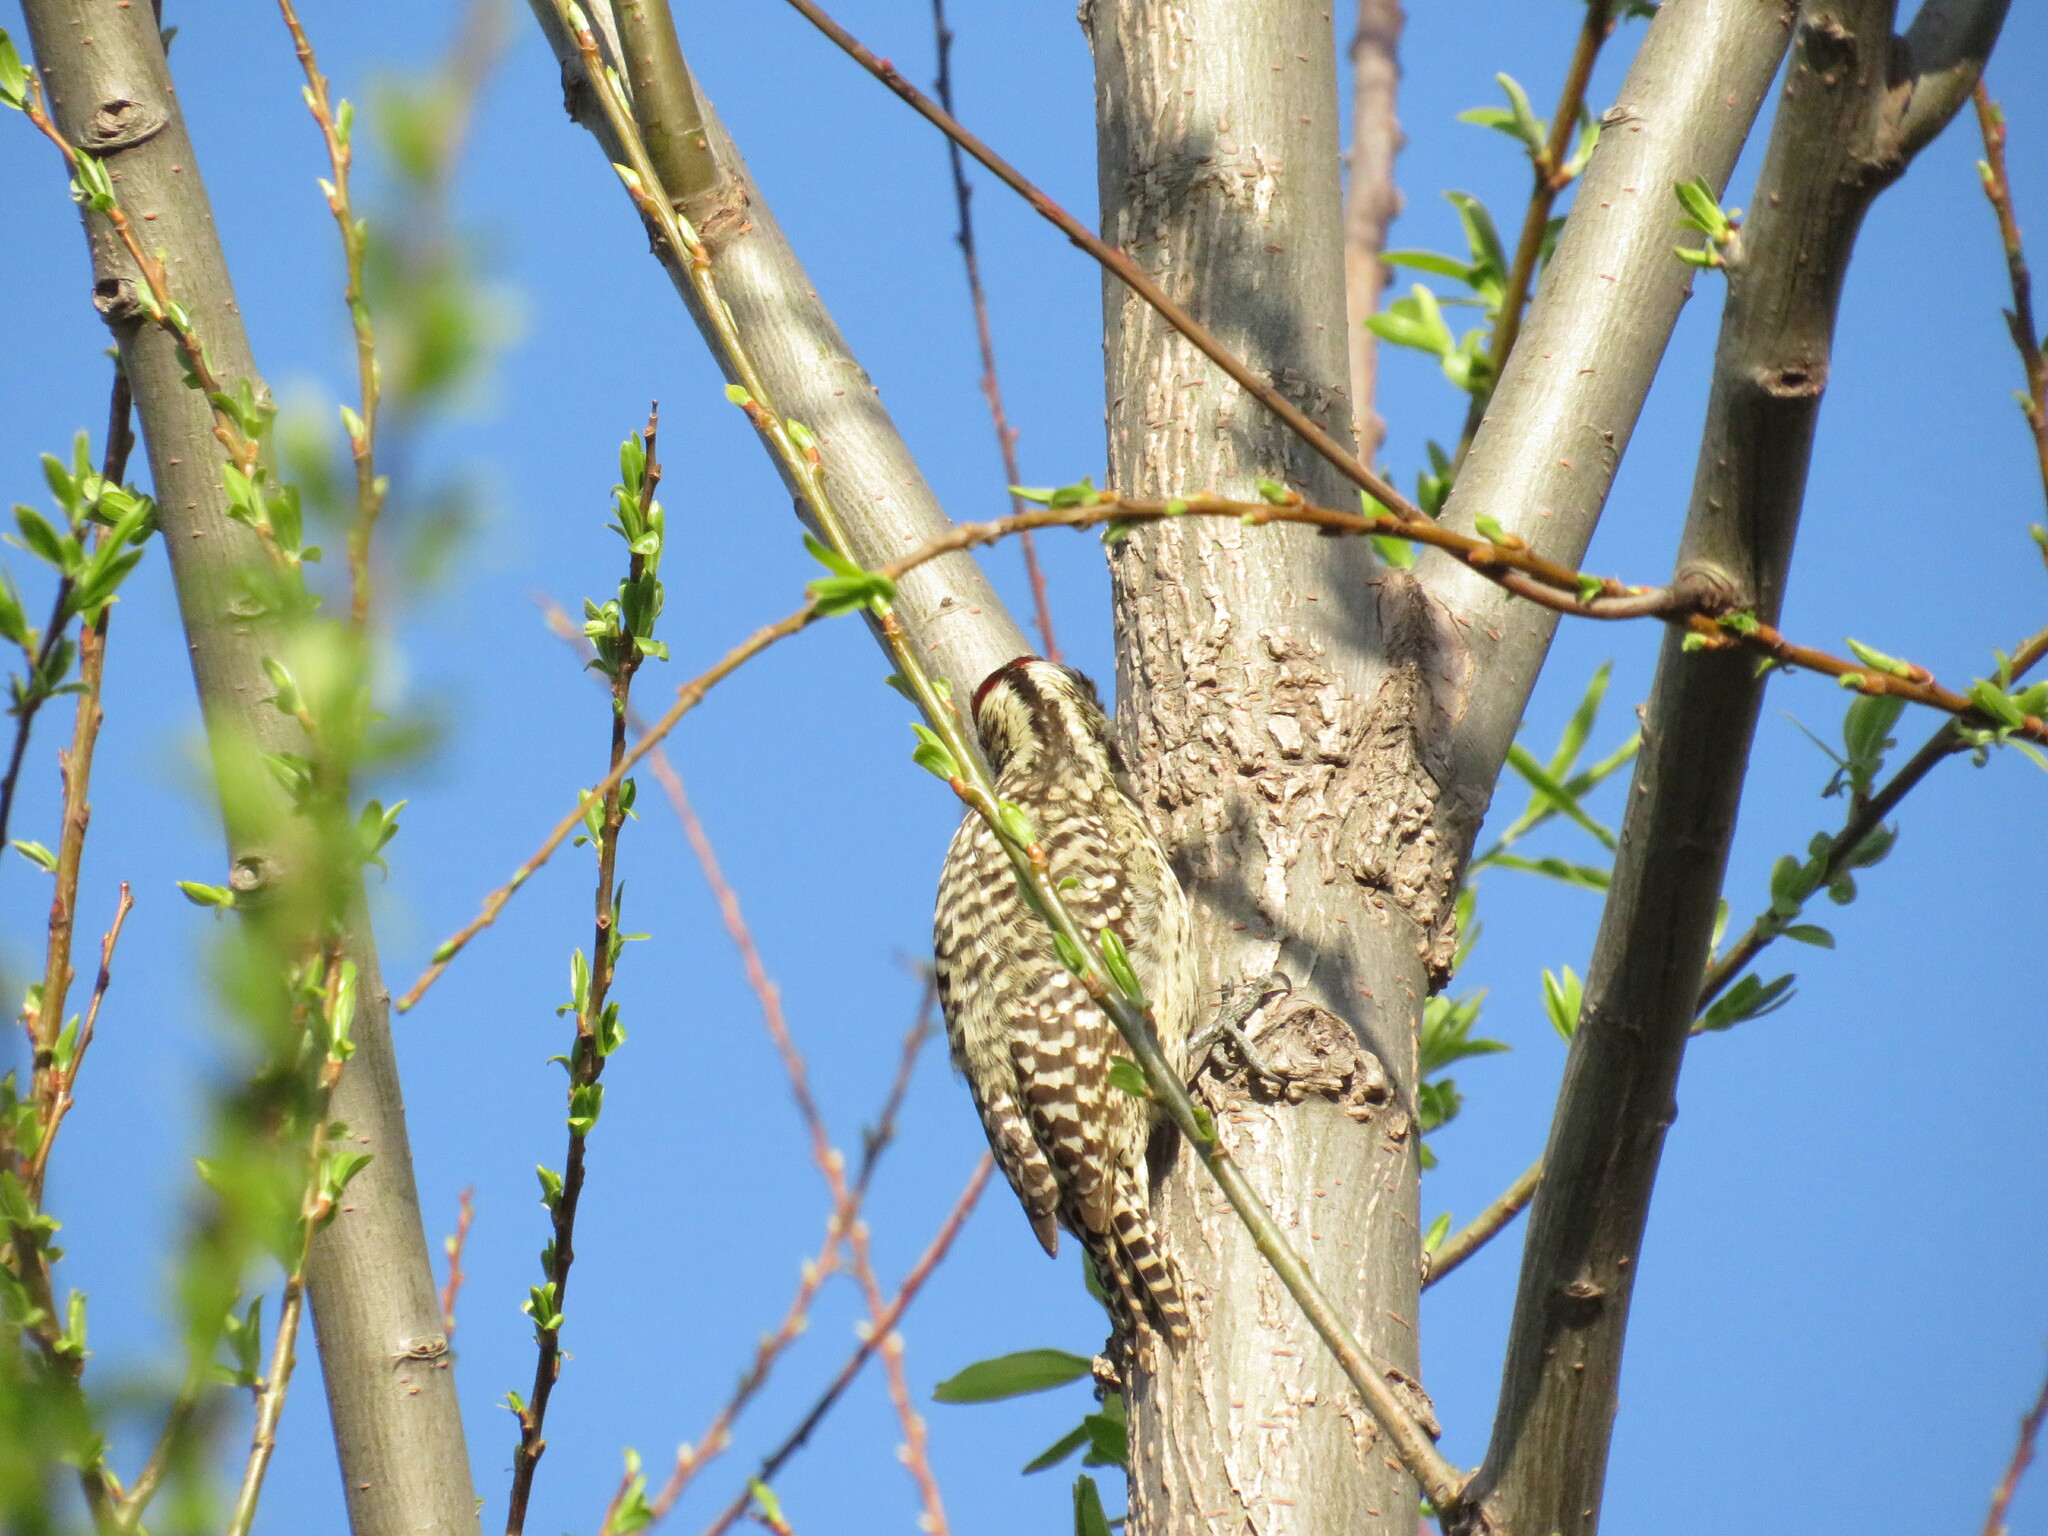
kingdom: Animalia
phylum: Chordata
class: Aves
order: Piciformes
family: Picidae
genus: Veniliornis
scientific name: Veniliornis mixtus
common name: Checkered woodpecker
